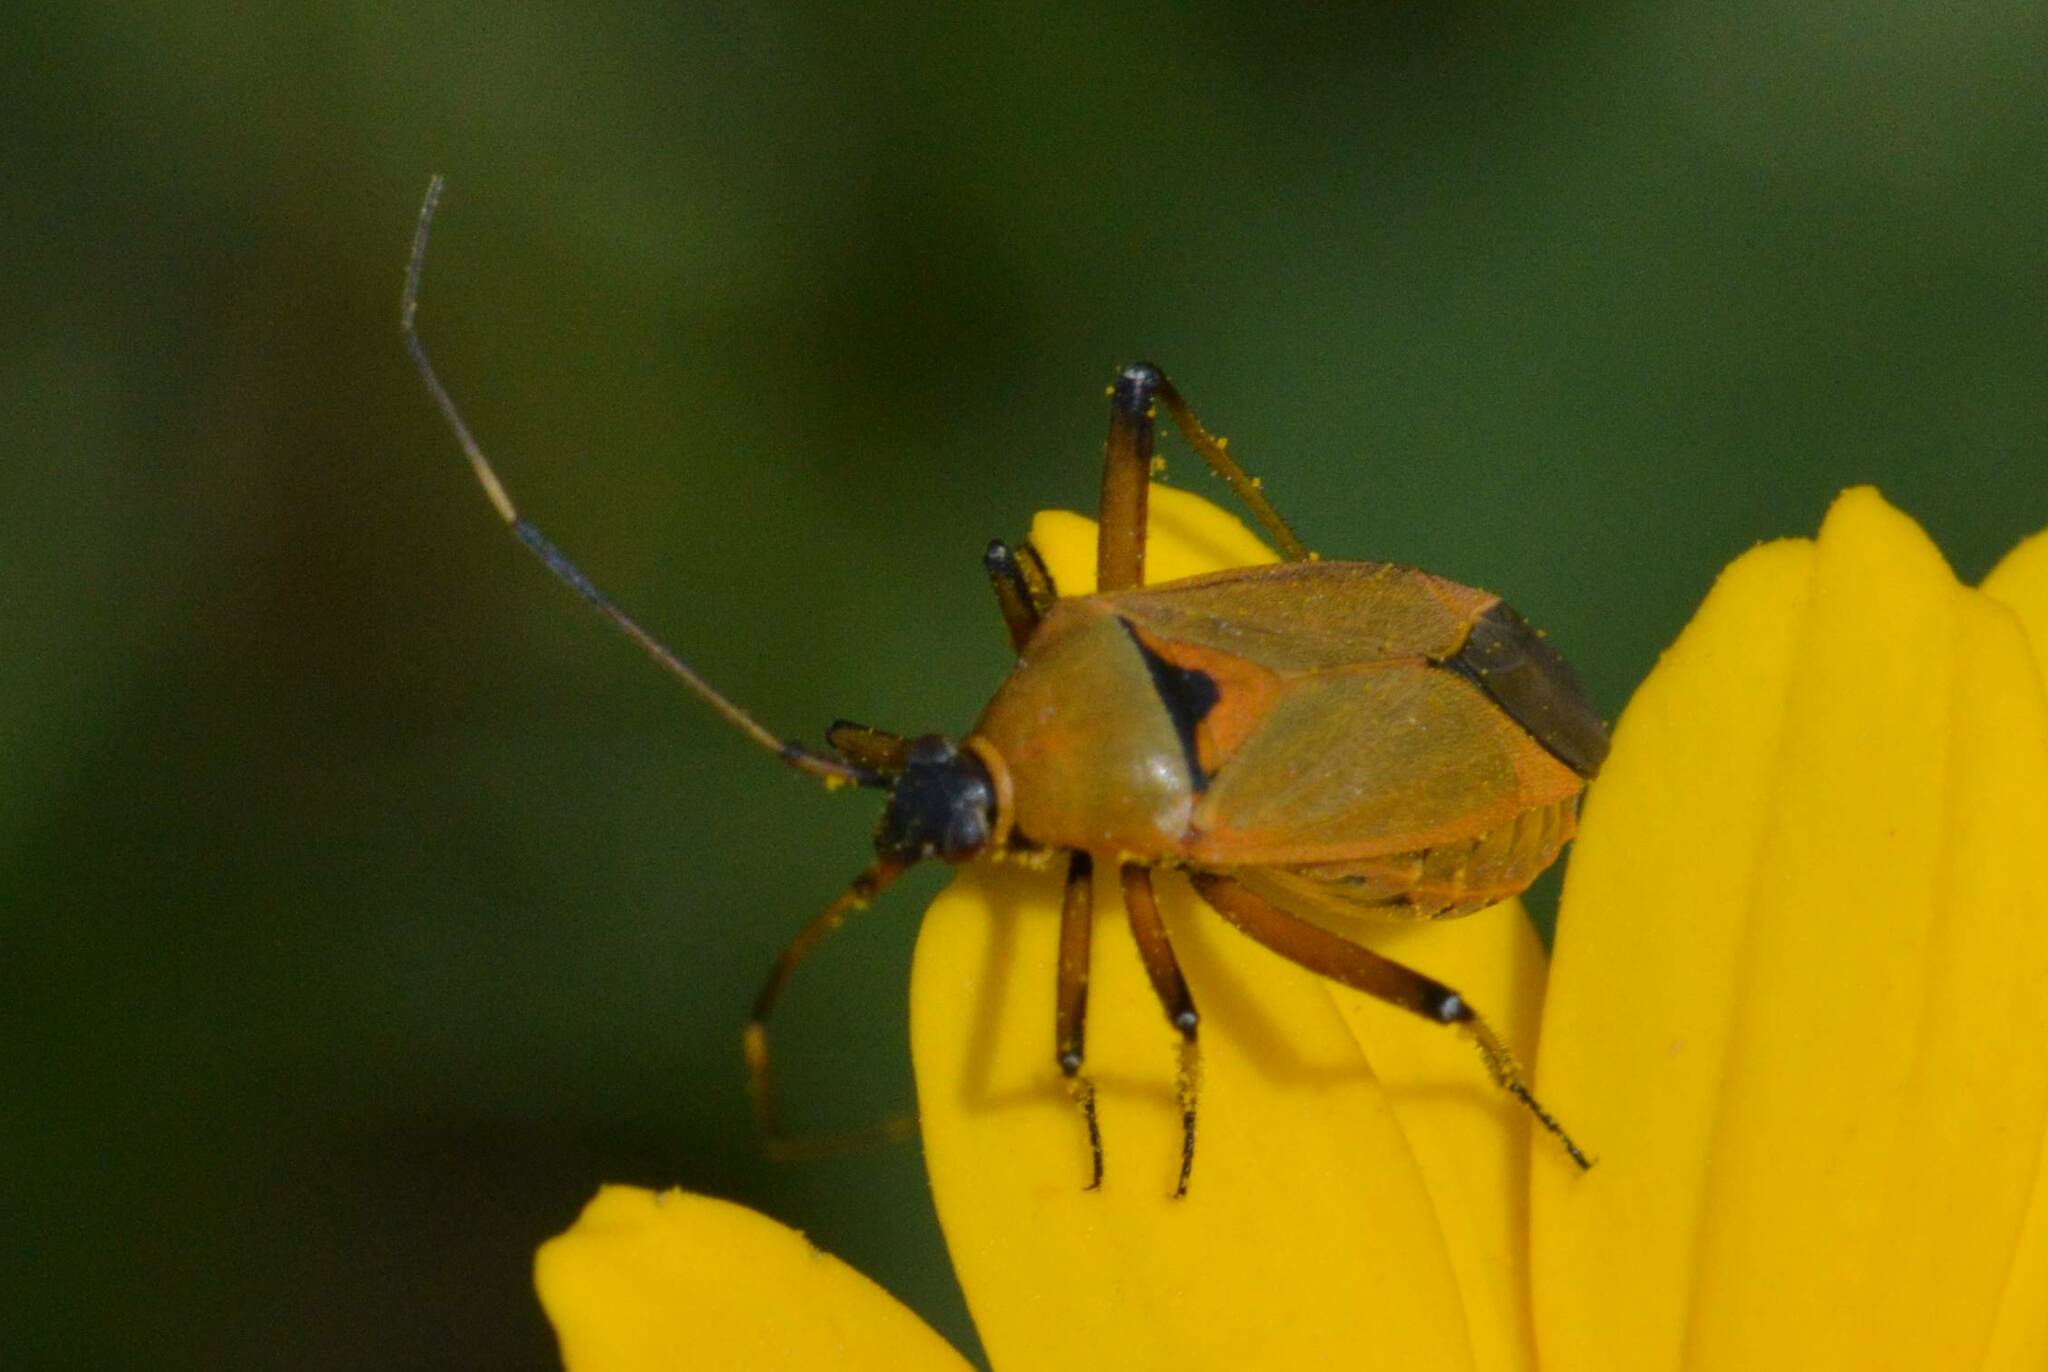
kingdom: Animalia
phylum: Arthropoda
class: Insecta
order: Hemiptera
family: Miridae
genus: Calocoris
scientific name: Calocoris nemoralis
